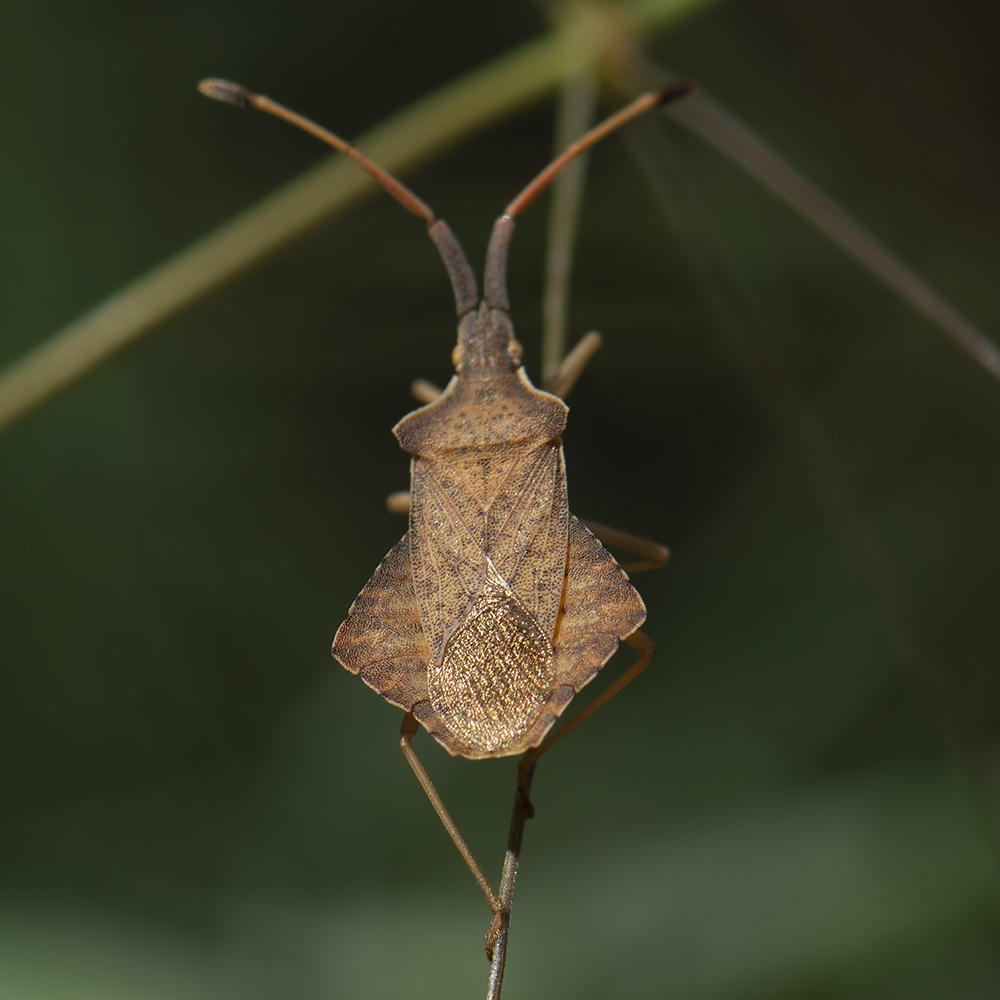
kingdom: Animalia
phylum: Arthropoda
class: Insecta
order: Hemiptera
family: Coreidae
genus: Syromastus
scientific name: Syromastus rhombeus
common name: Rhombic leatherbug
